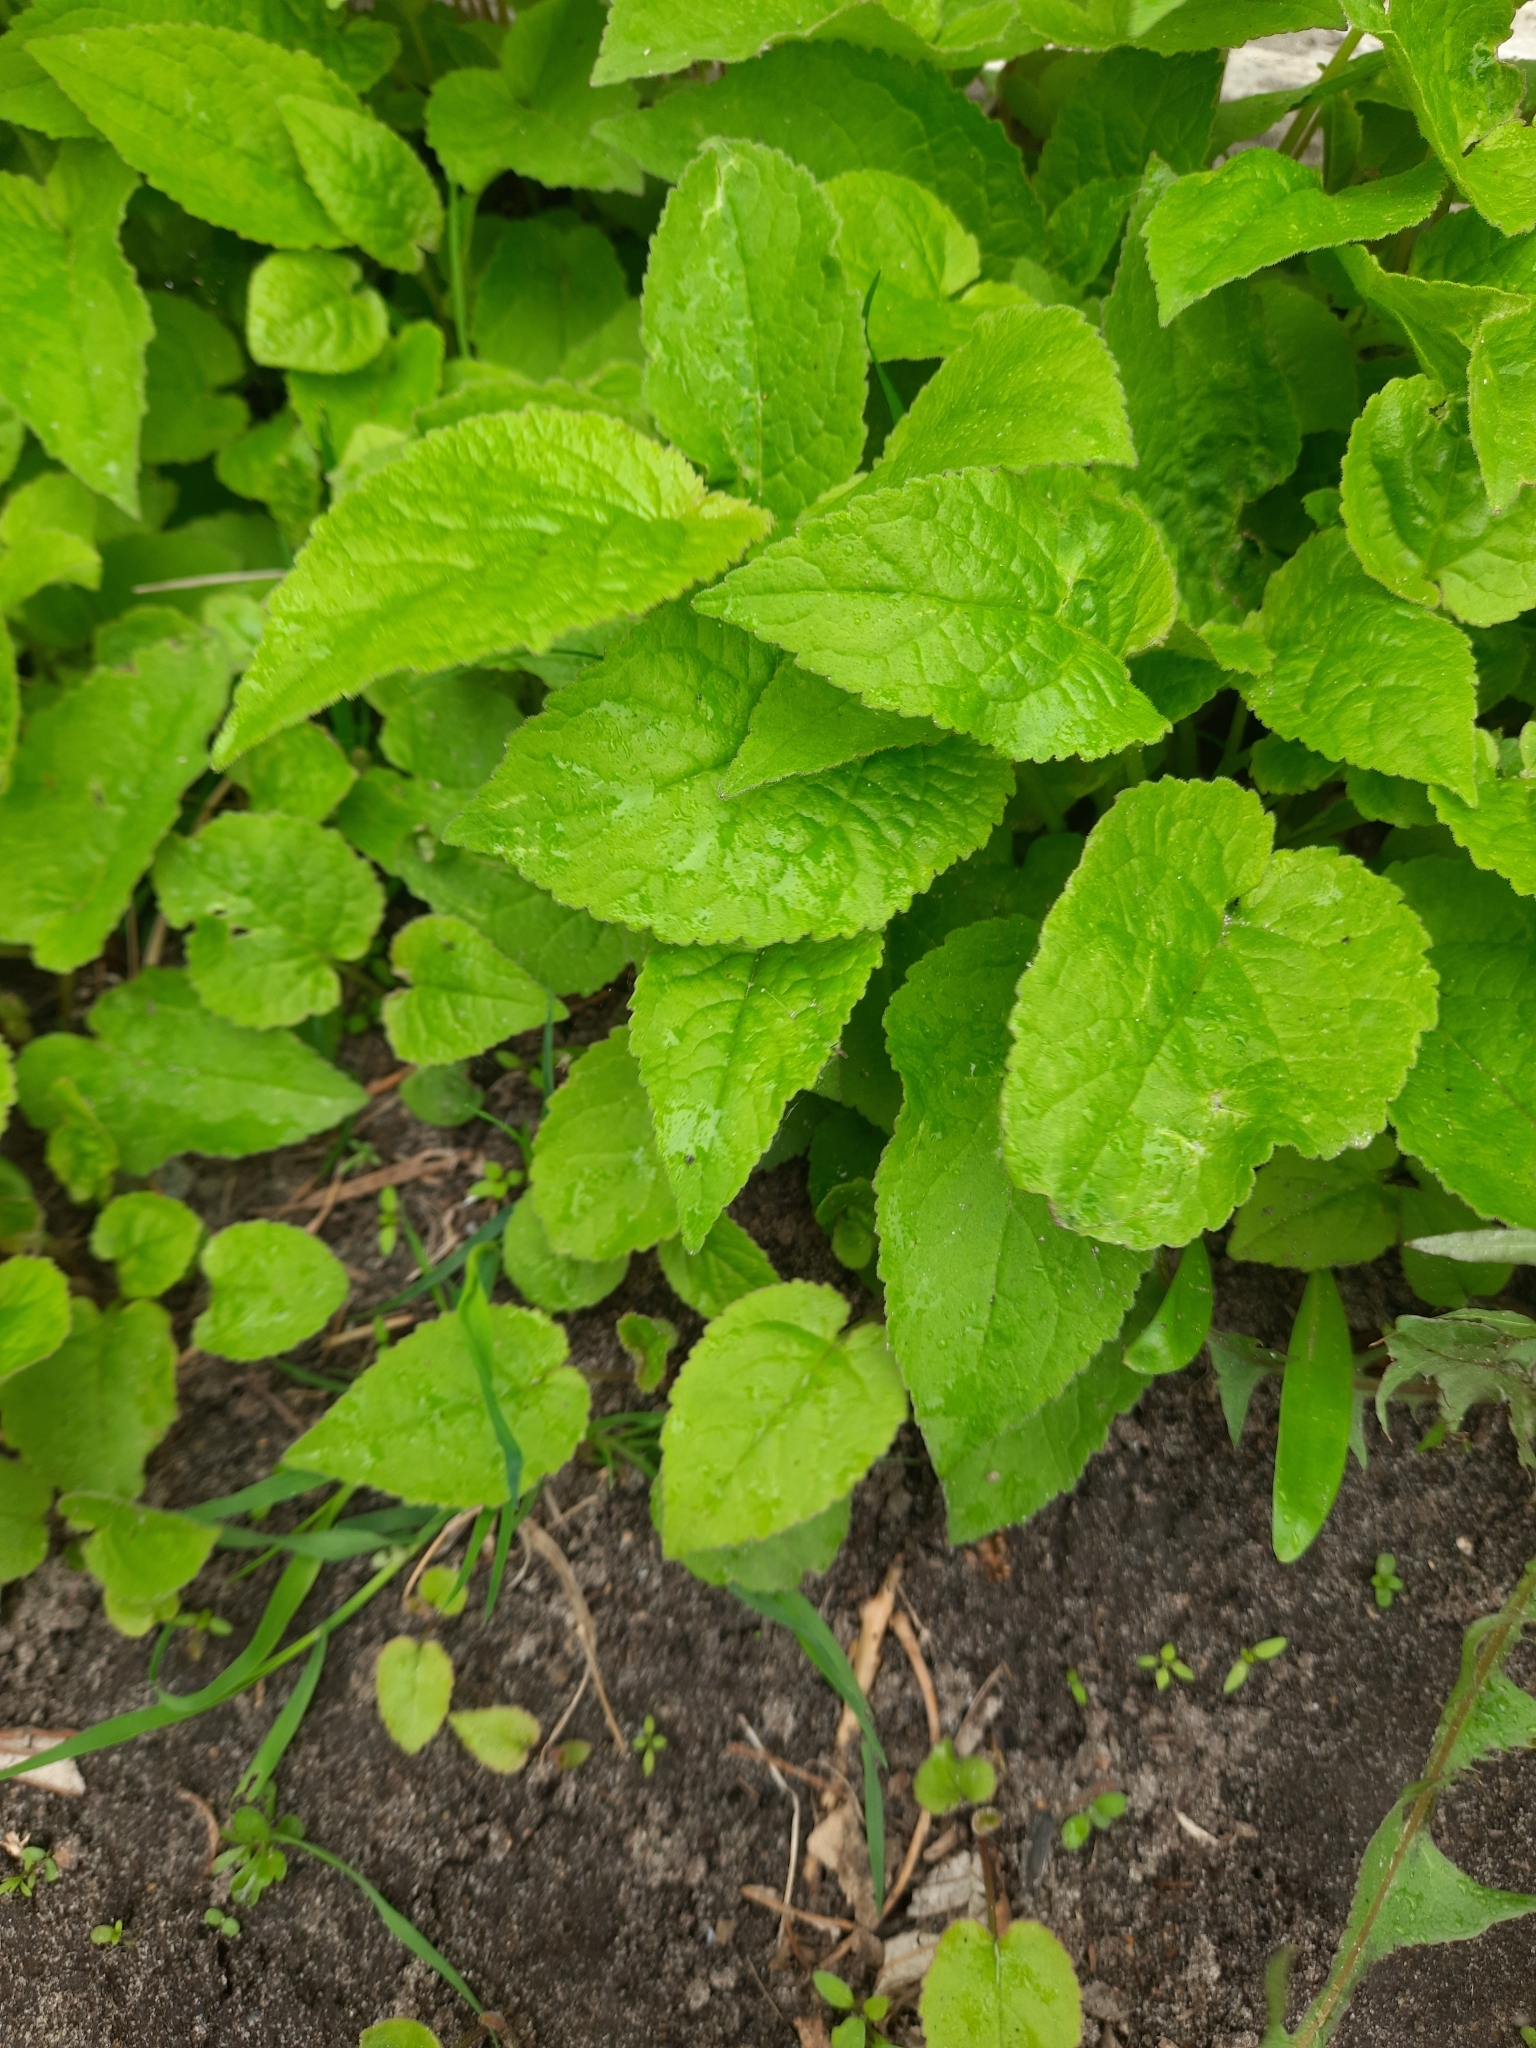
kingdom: Plantae
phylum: Tracheophyta
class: Magnoliopsida
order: Asterales
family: Campanulaceae
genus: Campanula
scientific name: Campanula rapunculoides
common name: Creeping bellflower
